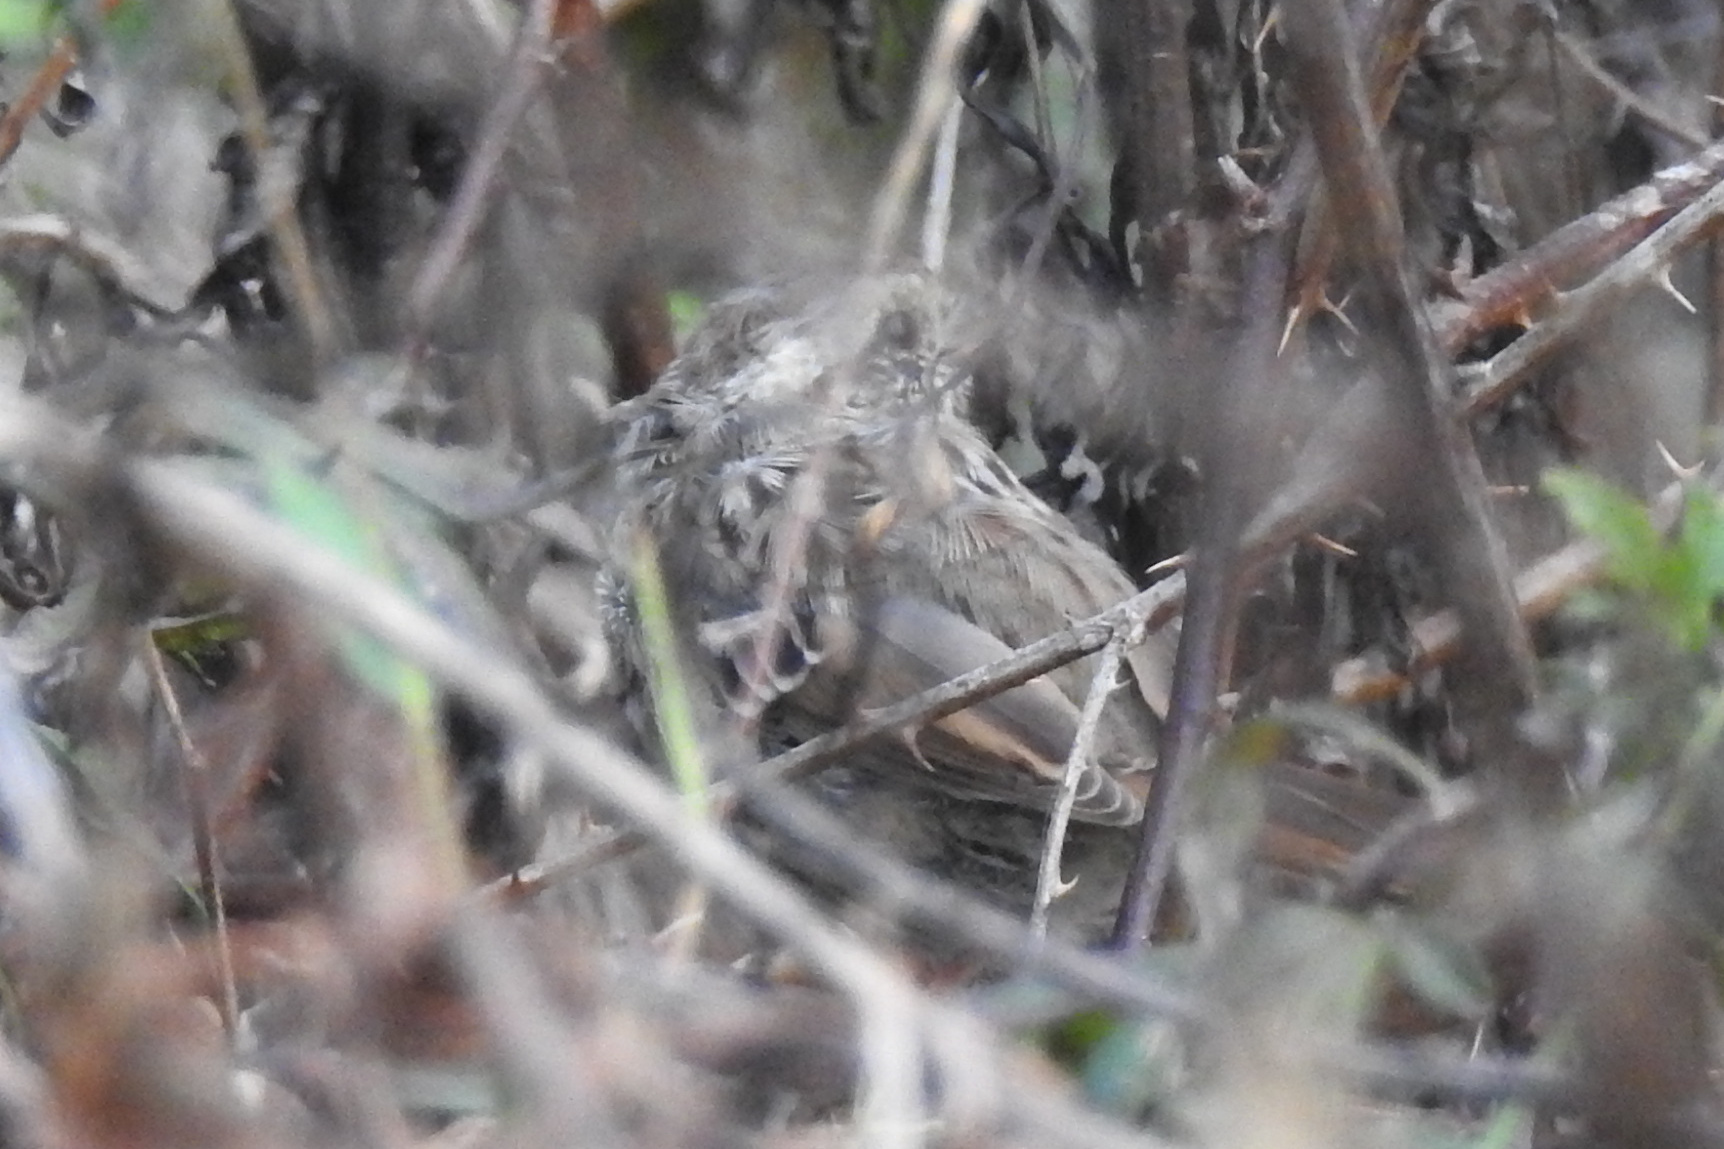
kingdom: Animalia
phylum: Chordata
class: Aves
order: Passeriformes
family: Passerellidae
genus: Melospiza
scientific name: Melospiza melodia
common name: Song sparrow
